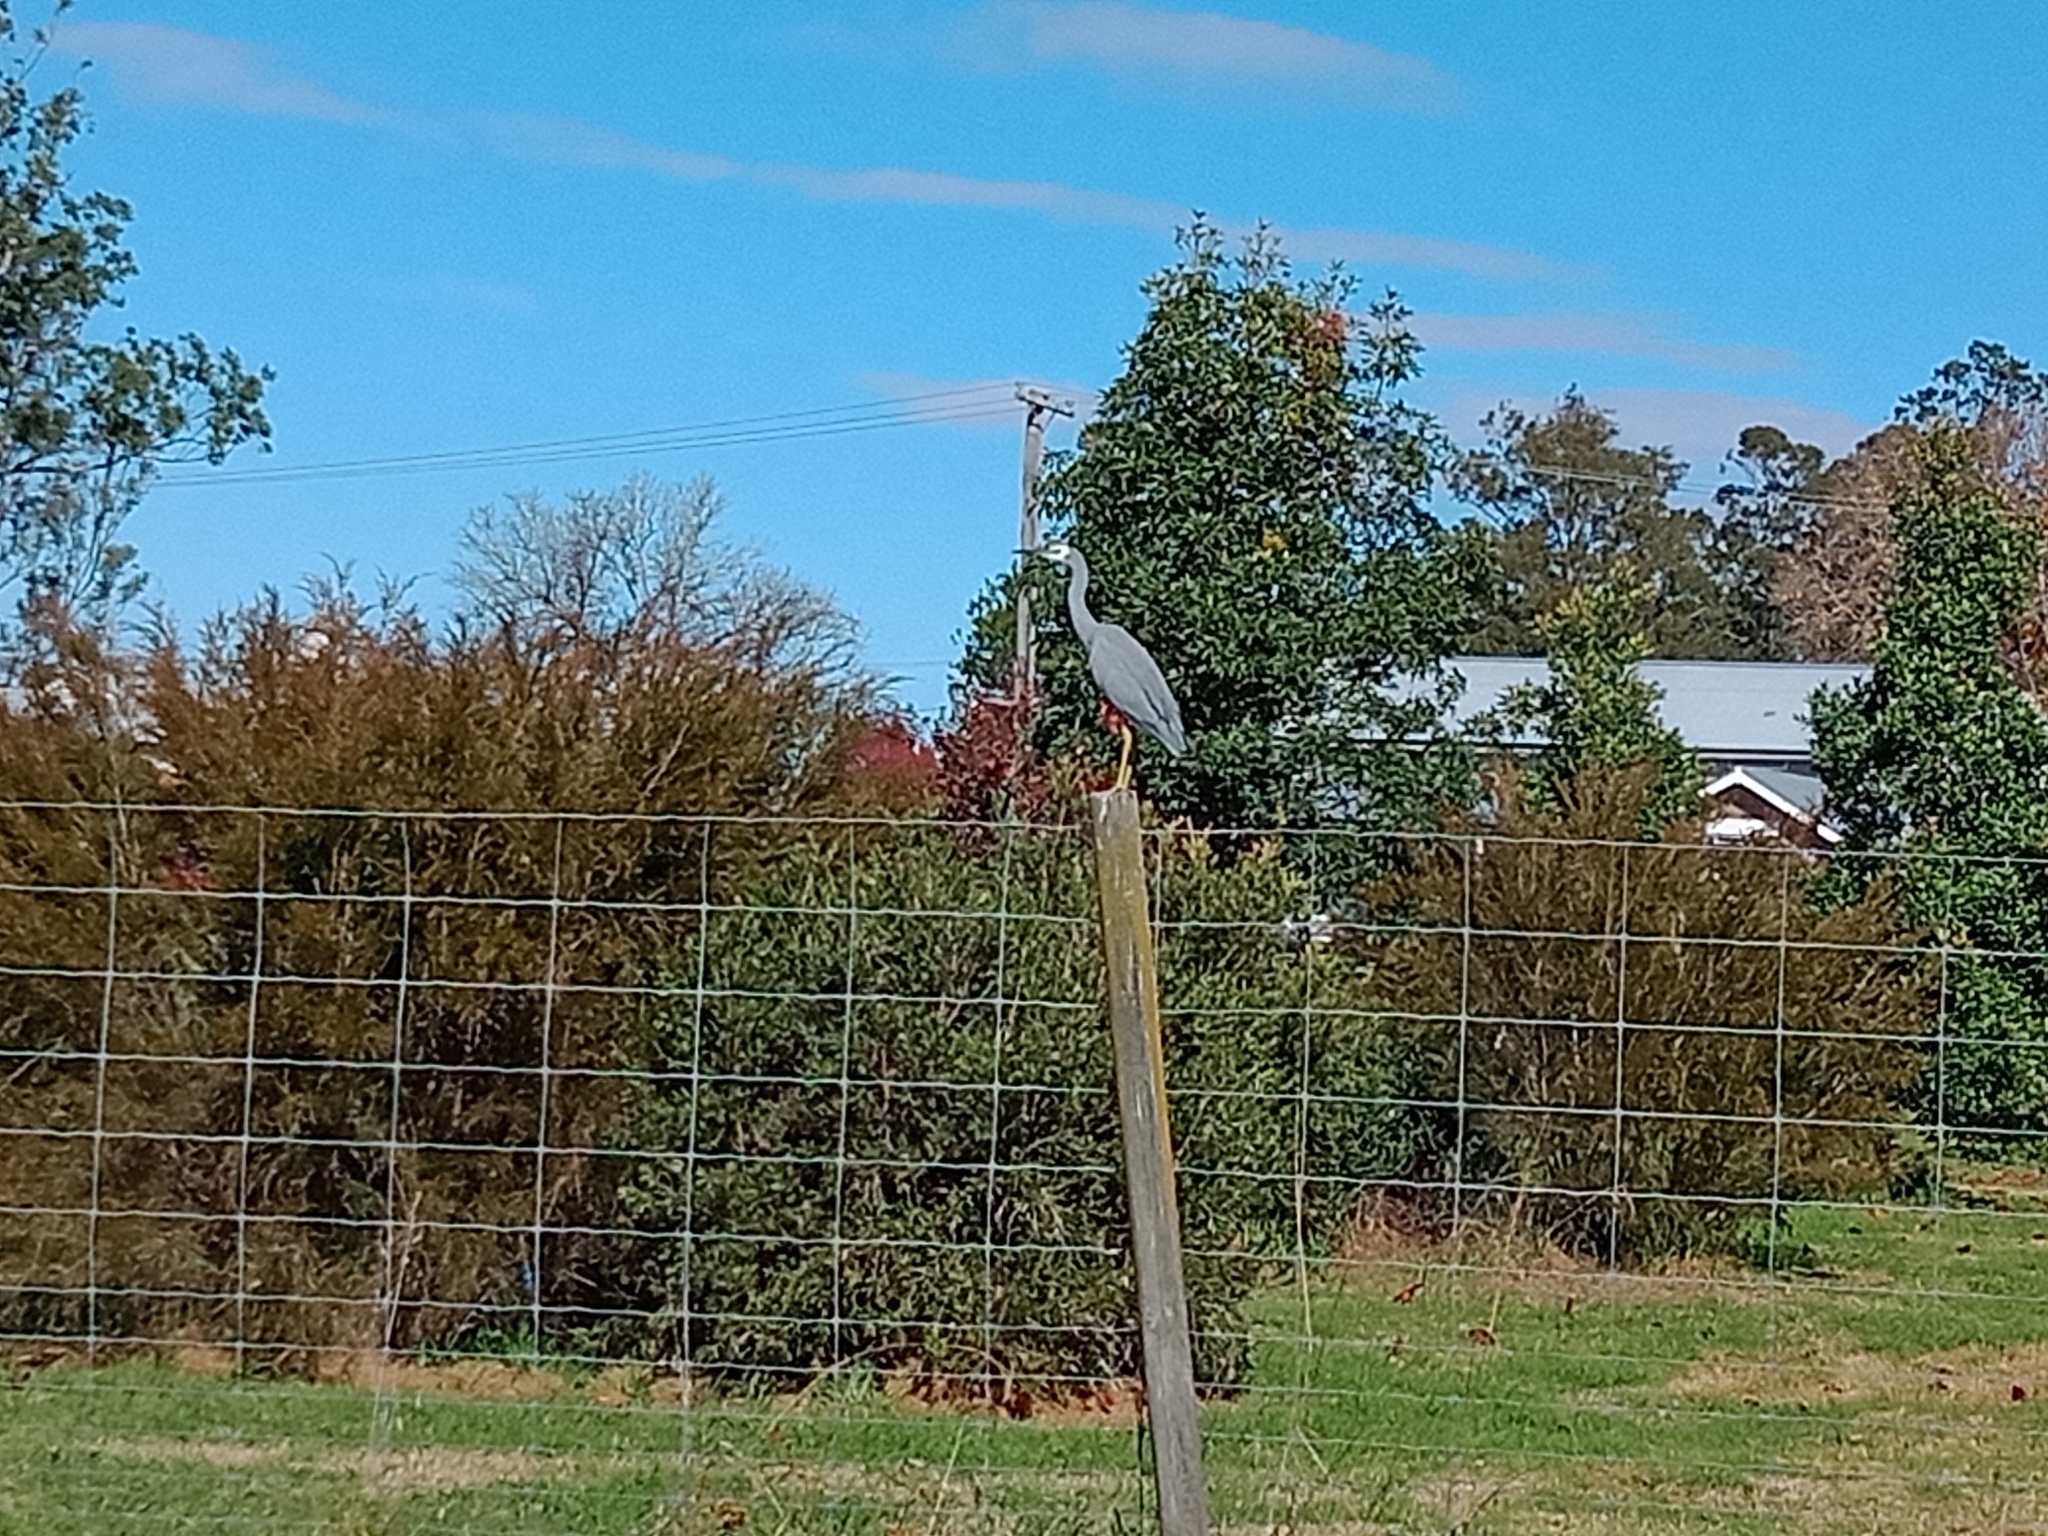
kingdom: Animalia
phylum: Chordata
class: Aves
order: Pelecaniformes
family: Ardeidae
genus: Egretta
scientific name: Egretta novaehollandiae
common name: White-faced heron
